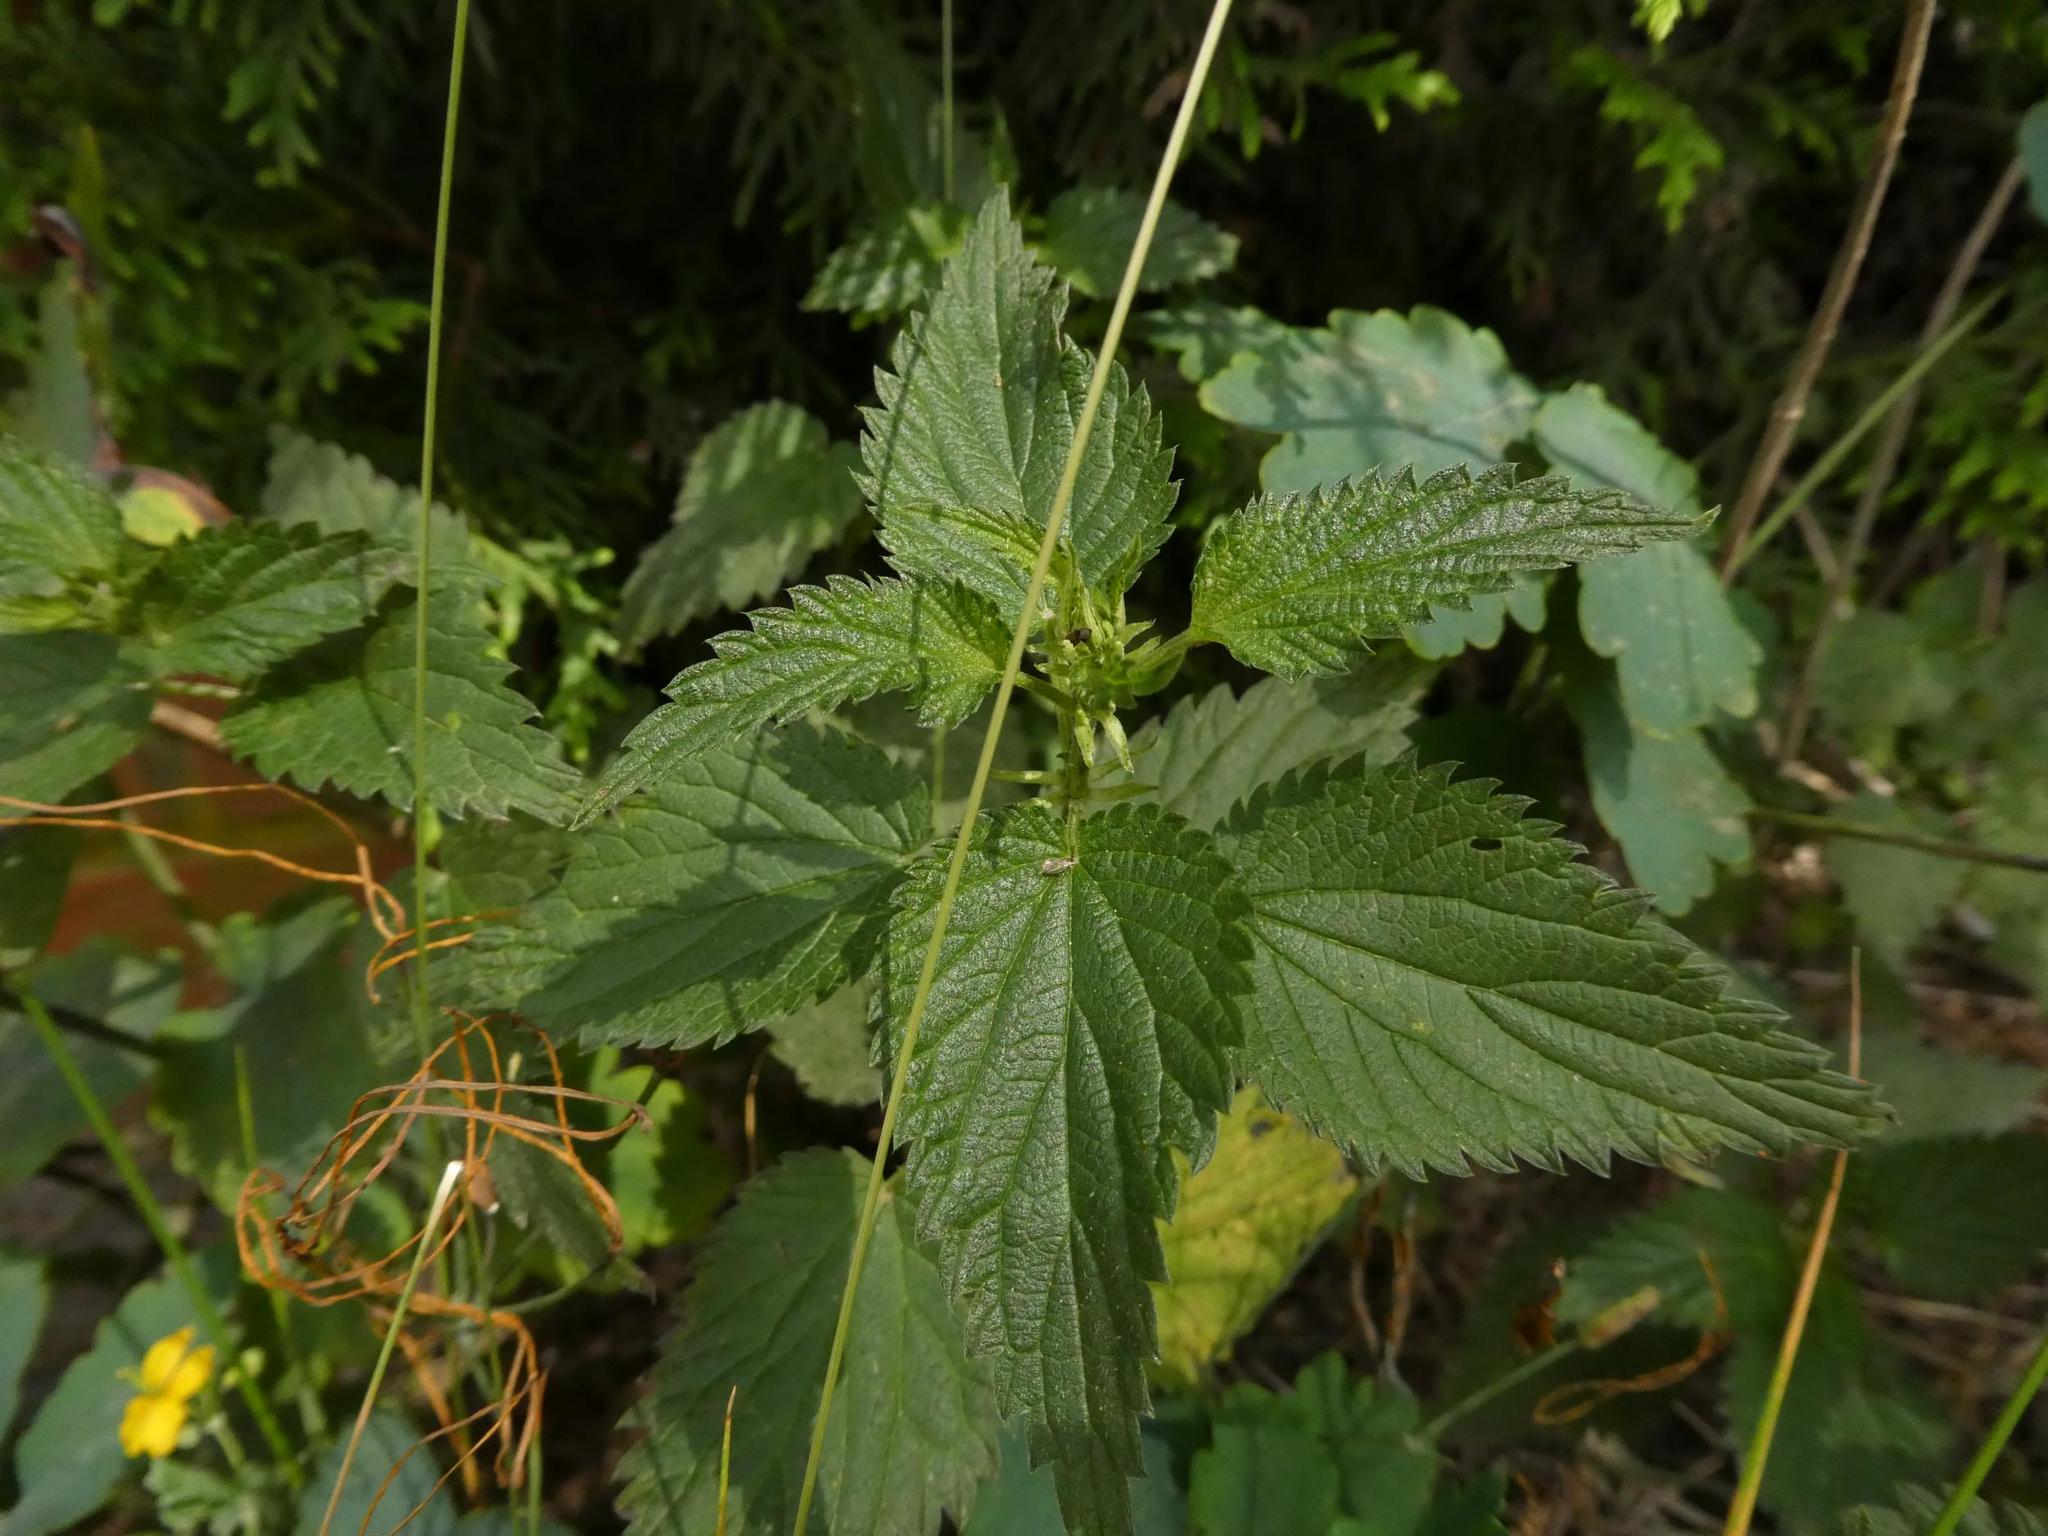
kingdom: Plantae
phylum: Tracheophyta
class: Magnoliopsida
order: Rosales
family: Urticaceae
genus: Urtica
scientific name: Urtica dioica
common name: Common nettle
